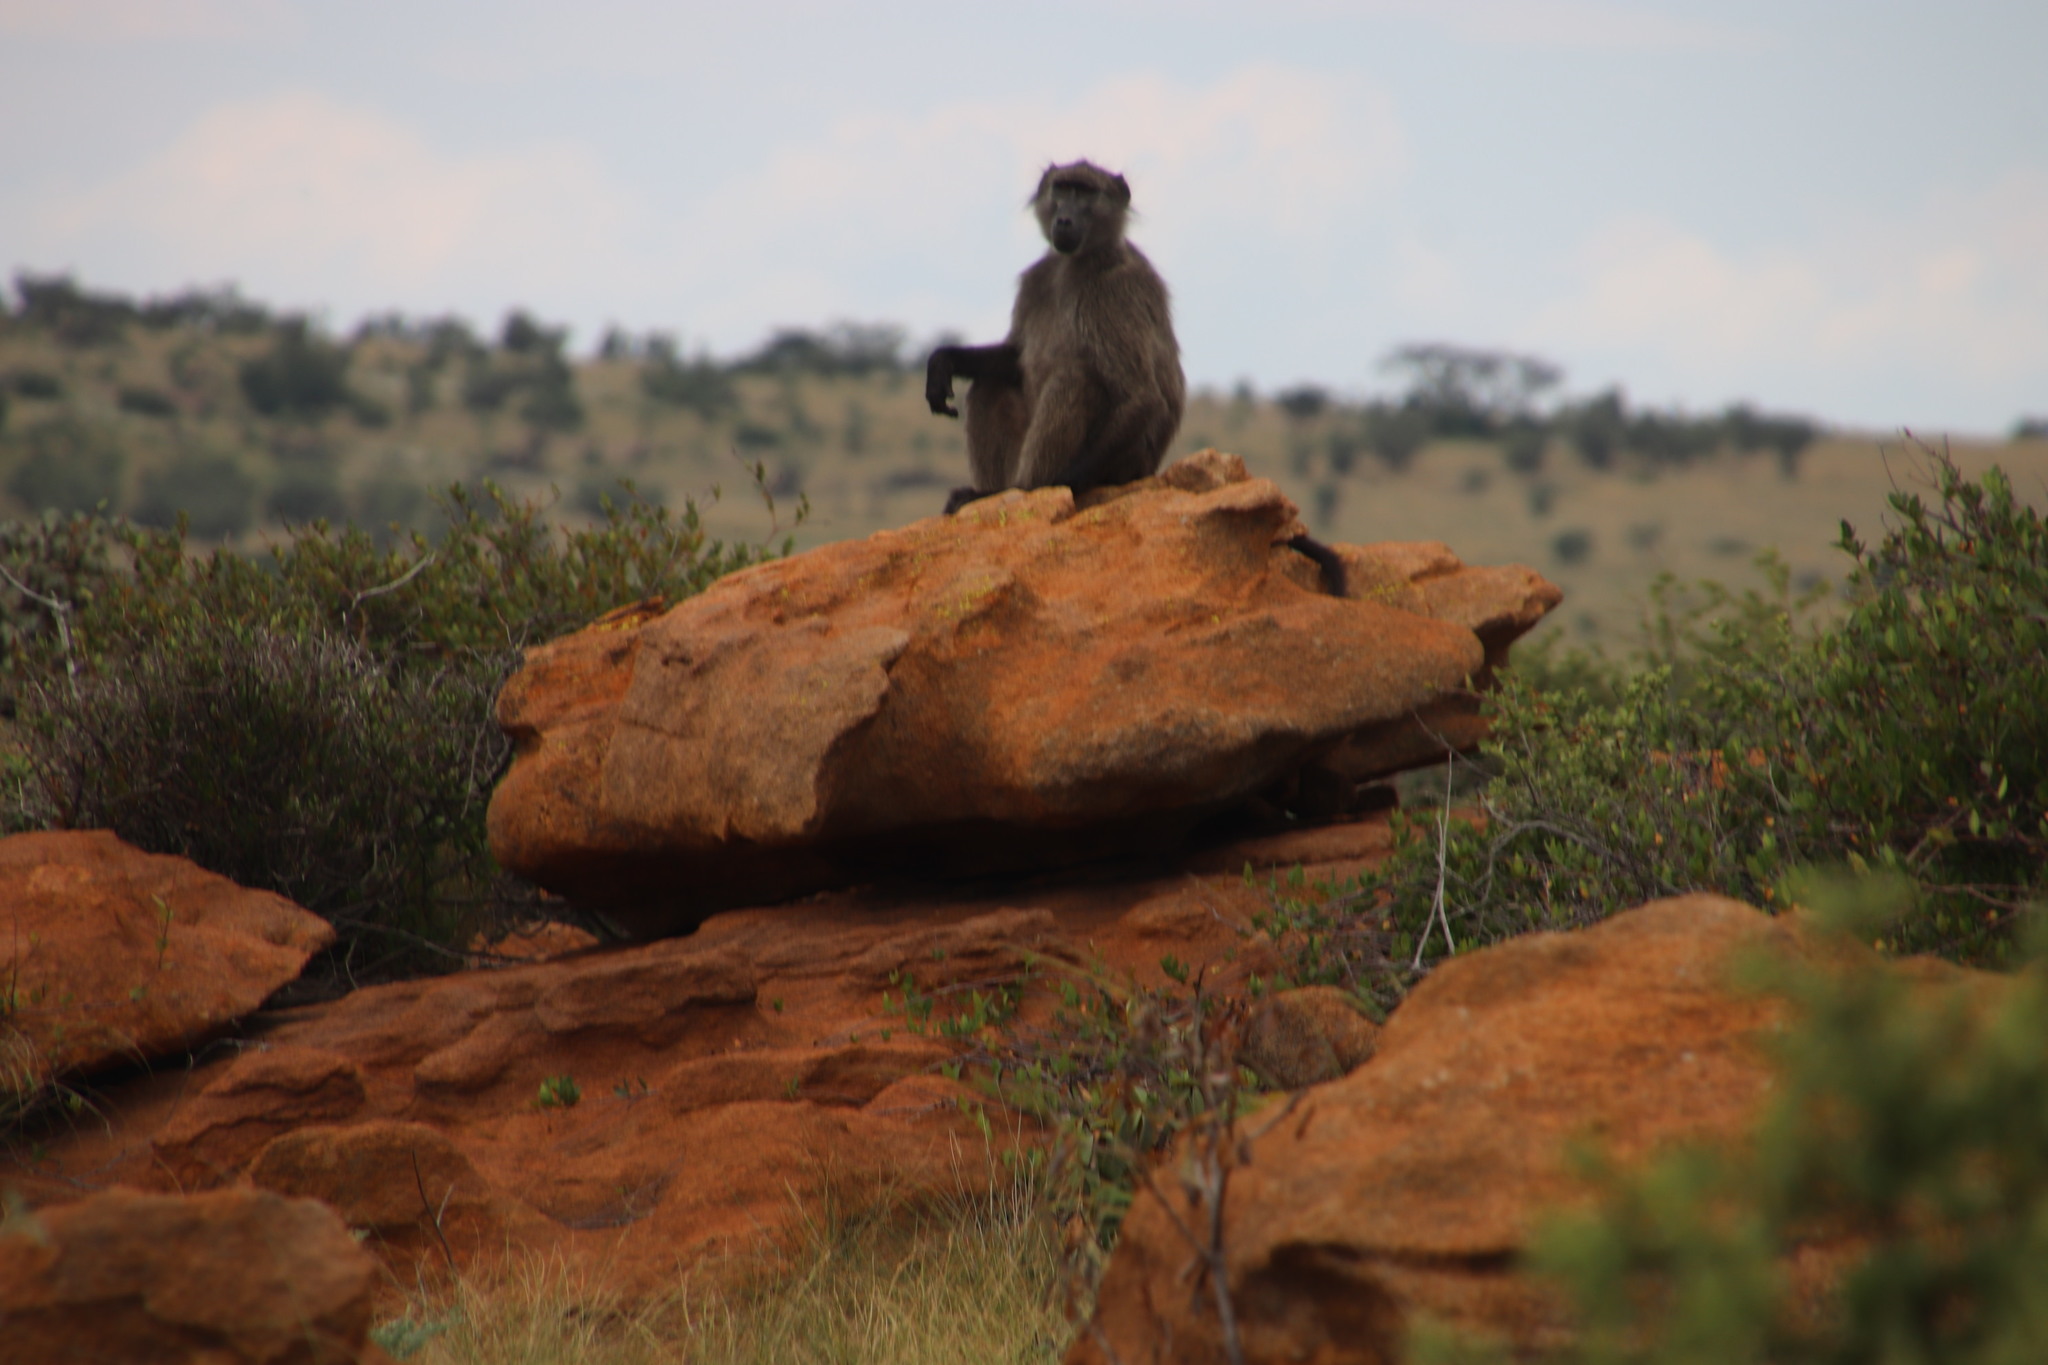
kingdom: Animalia
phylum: Chordata
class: Mammalia
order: Primates
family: Cercopithecidae
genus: Papio
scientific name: Papio ursinus
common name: Chacma baboon
